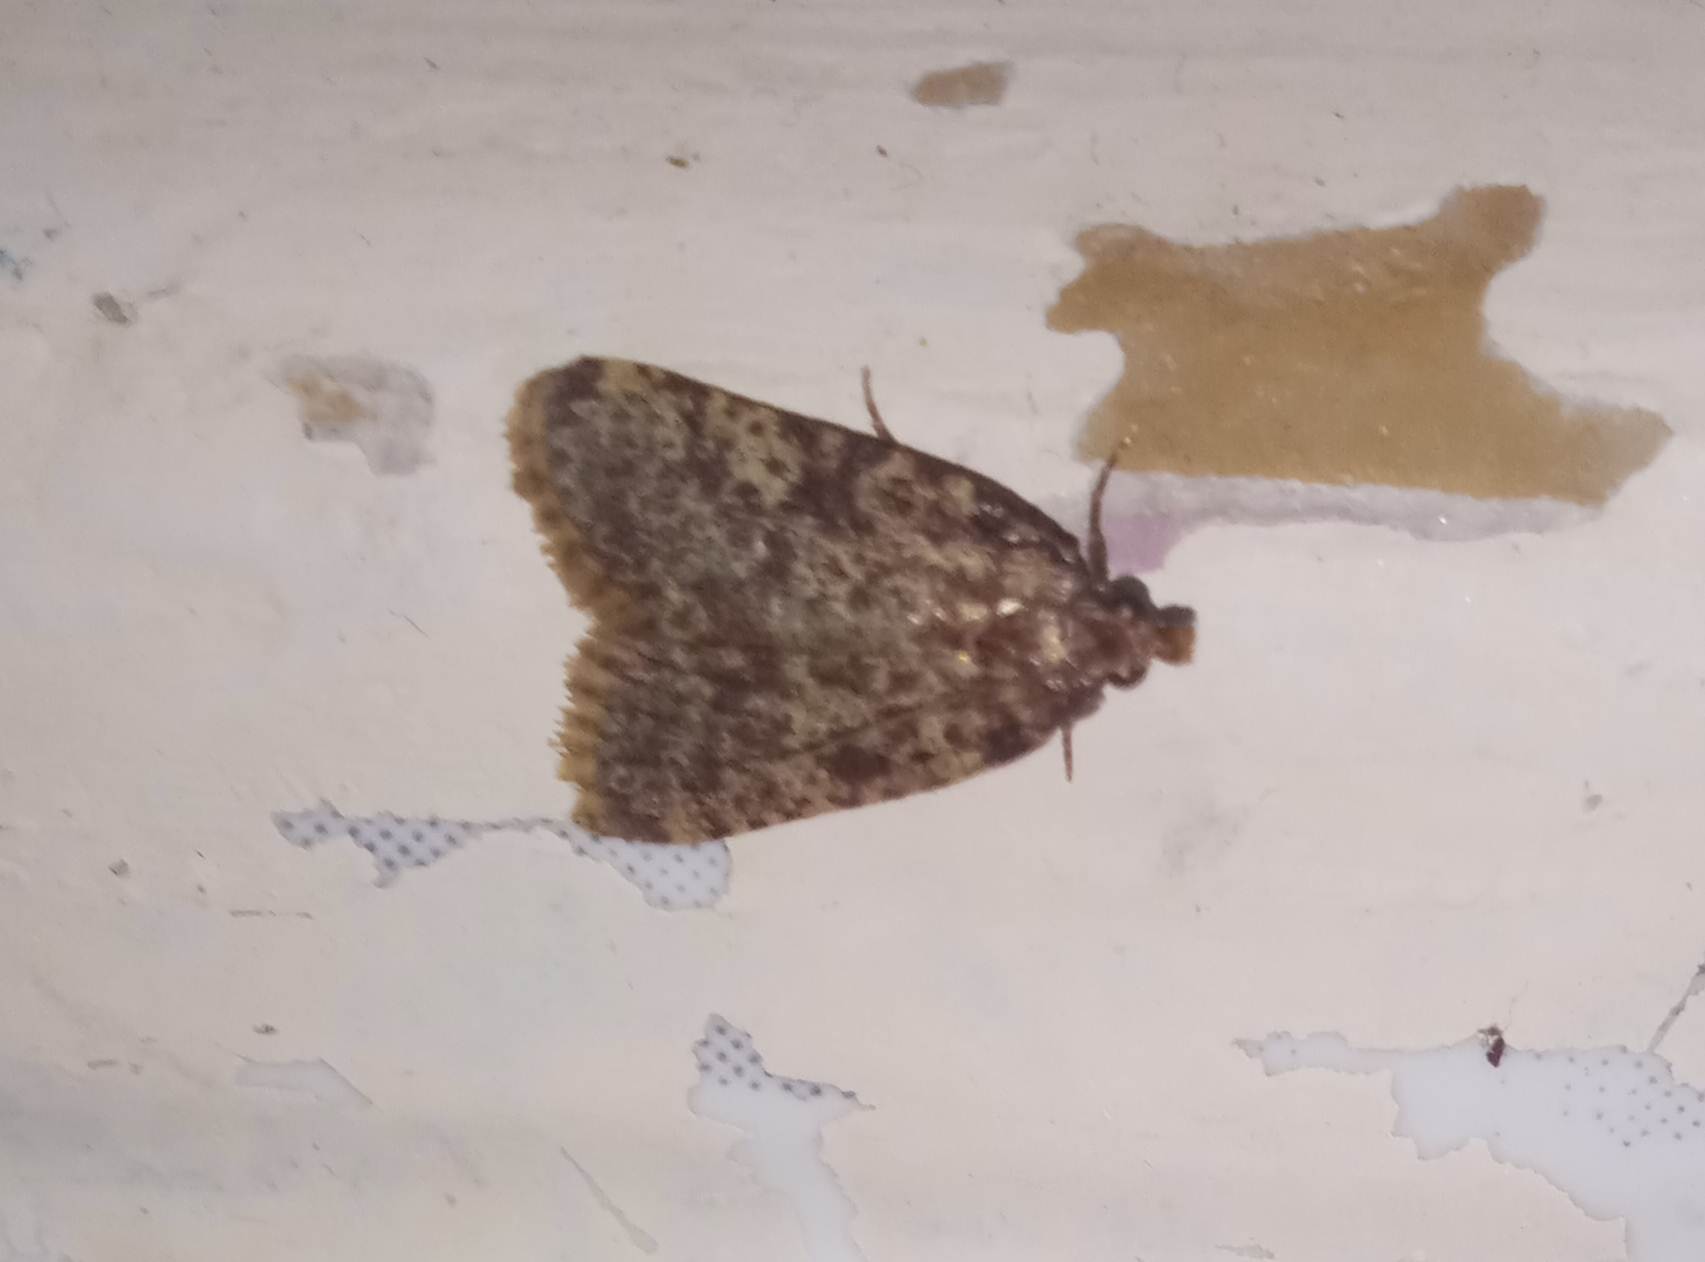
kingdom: Animalia
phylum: Arthropoda
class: Insecta
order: Lepidoptera
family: Pyralidae
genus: Aglossa
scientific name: Aglossa brabanti
